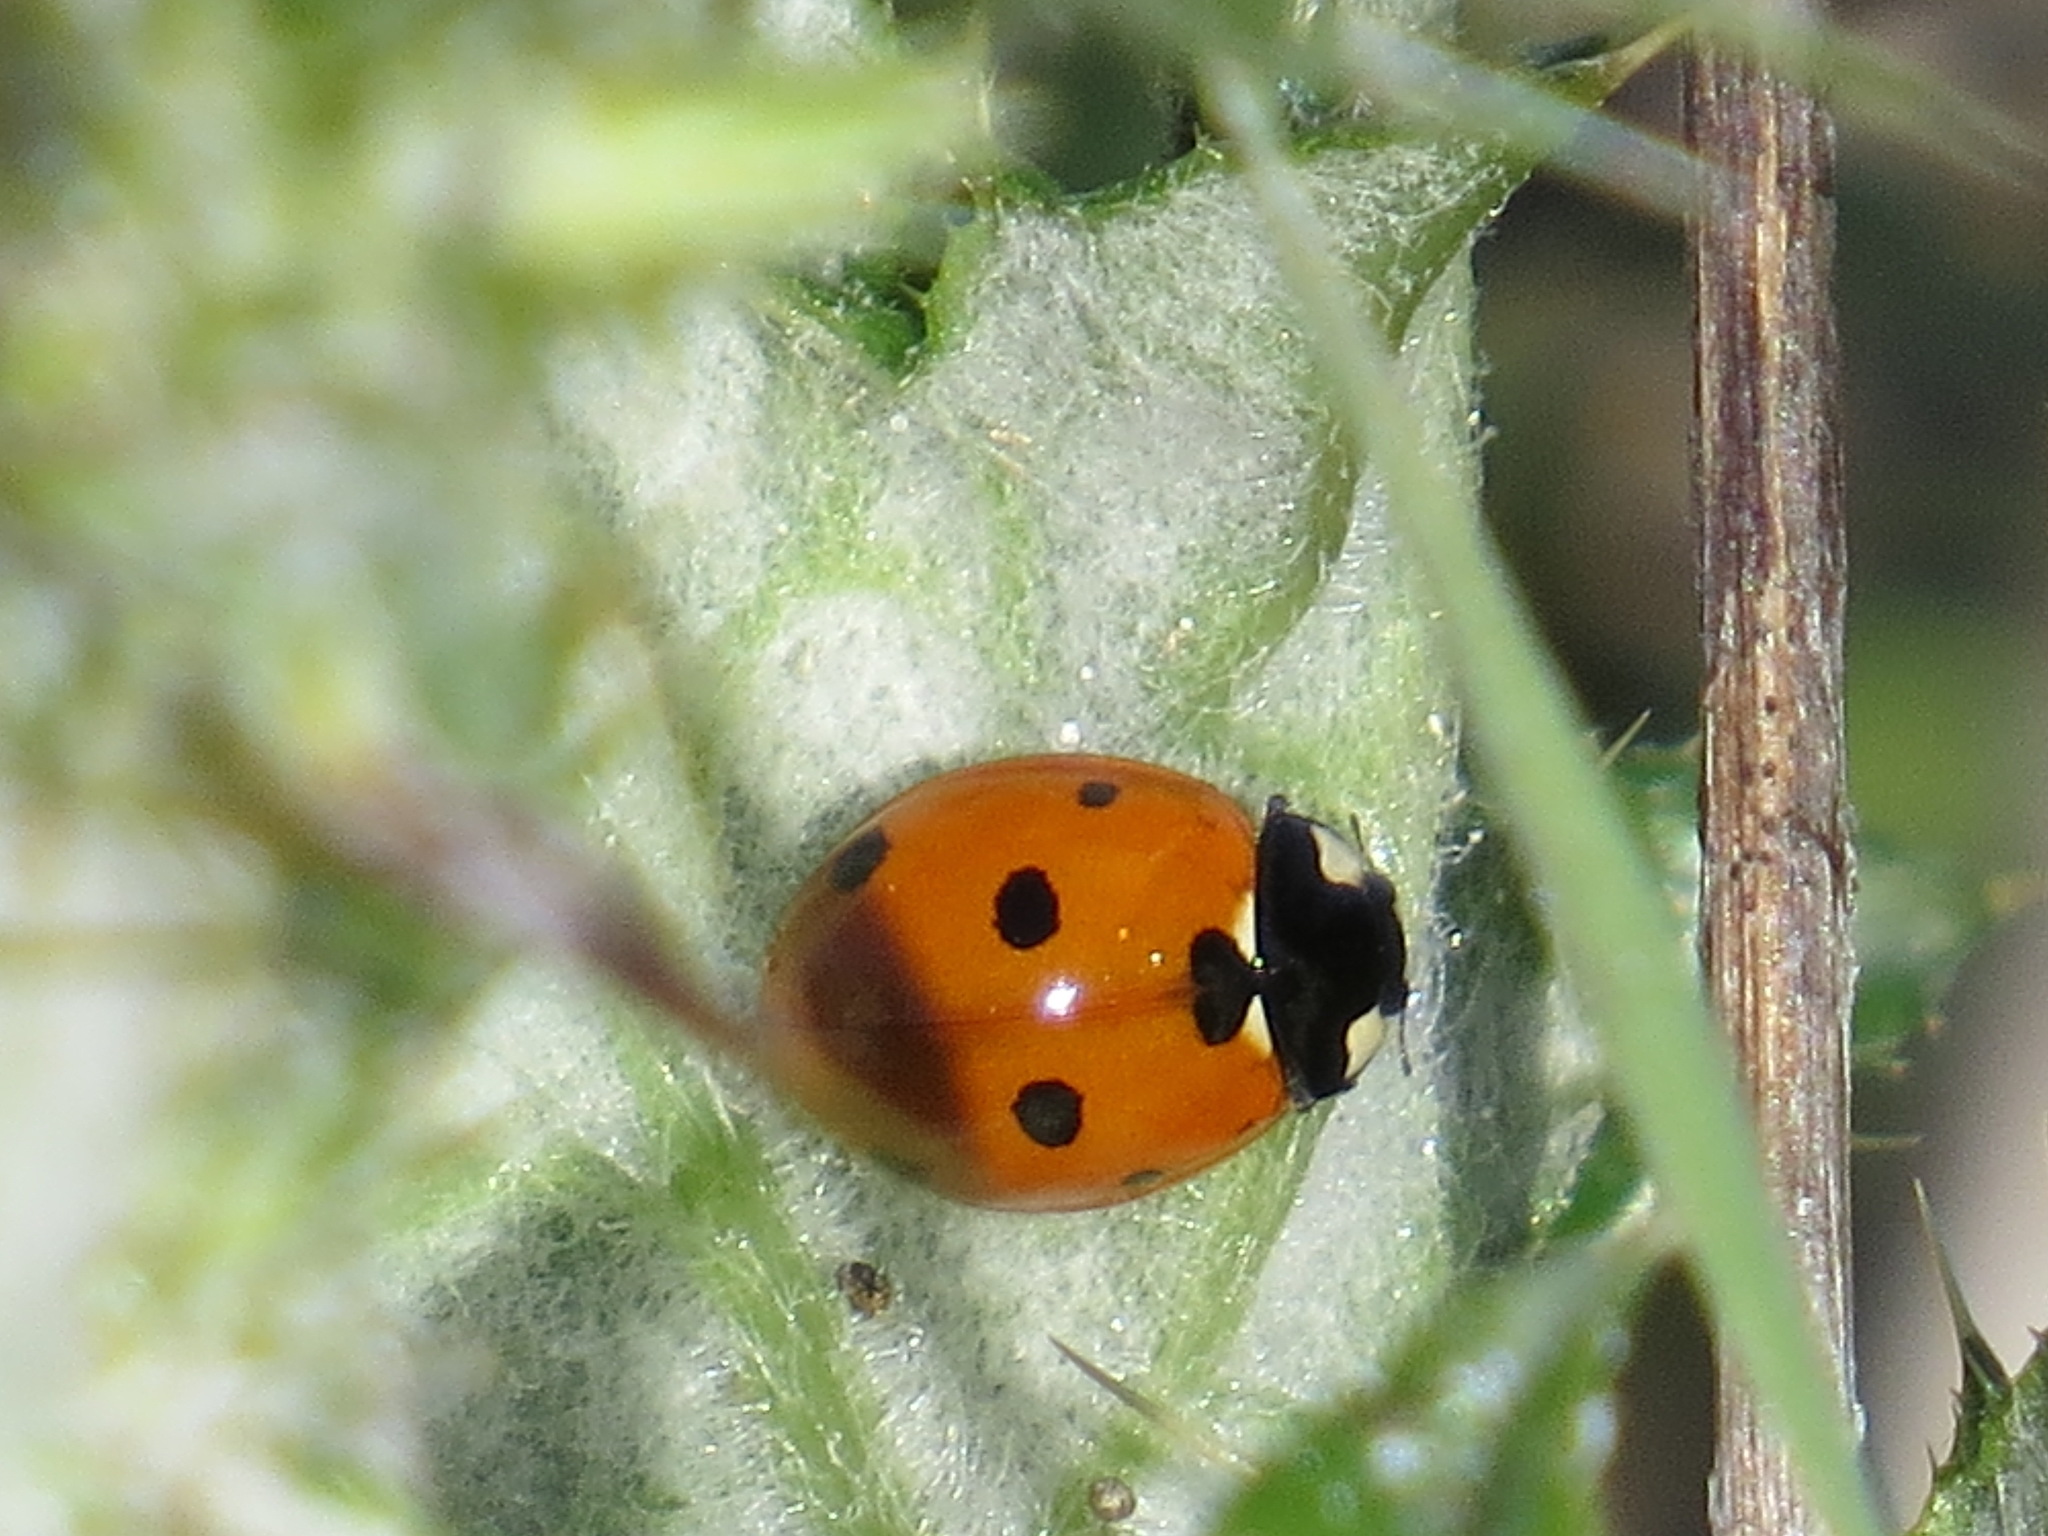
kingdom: Animalia
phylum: Arthropoda
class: Insecta
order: Coleoptera
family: Coccinellidae
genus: Coccinella
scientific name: Coccinella septempunctata
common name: Sevenspotted lady beetle
